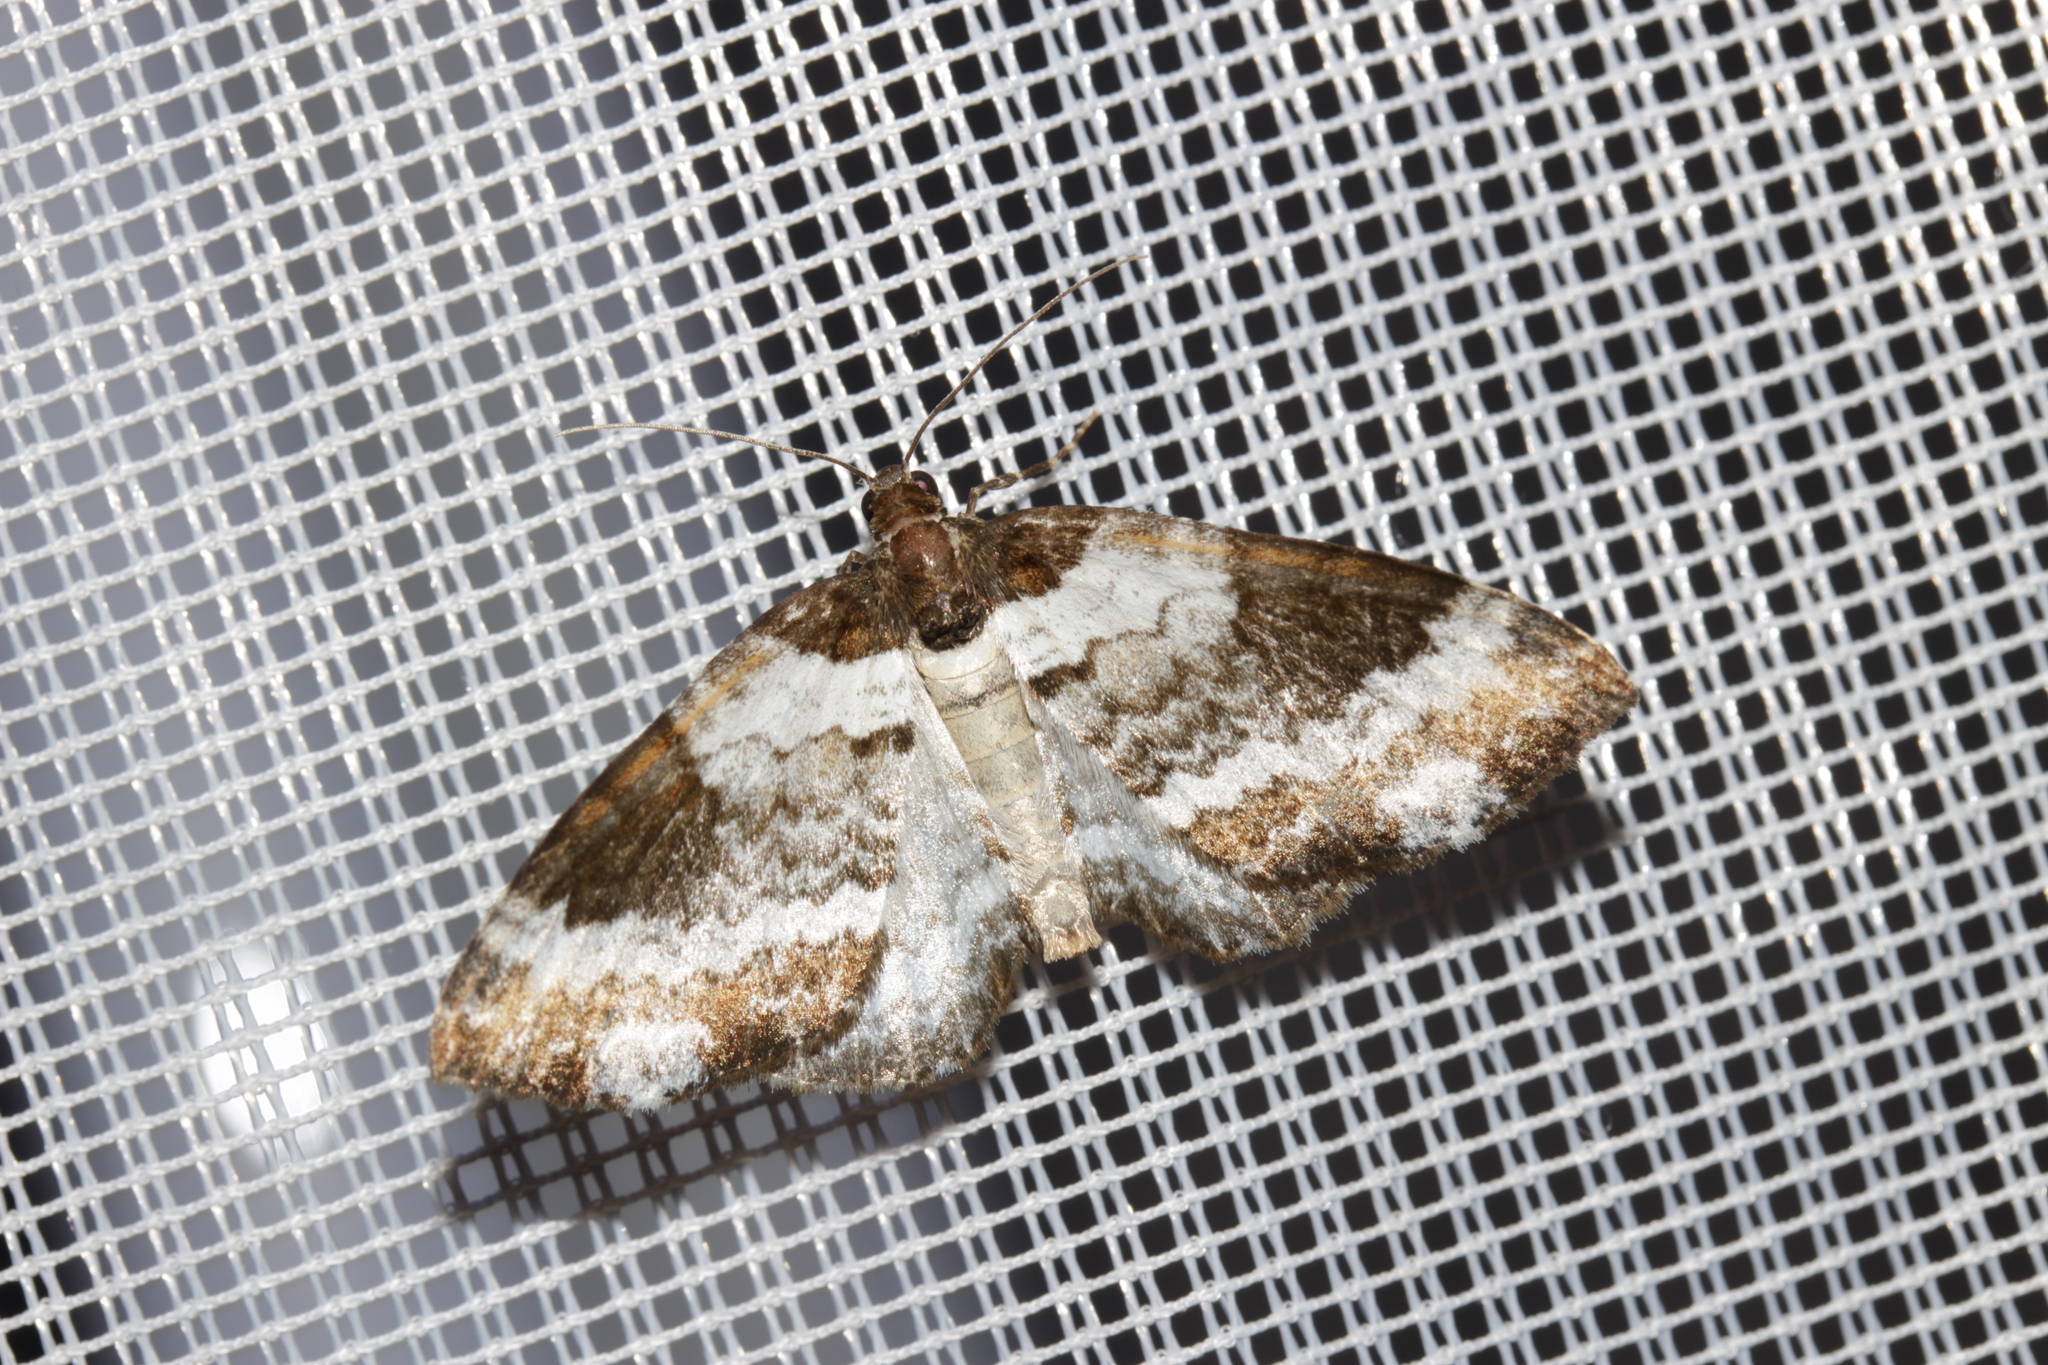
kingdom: Animalia
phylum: Arthropoda
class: Insecta
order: Lepidoptera
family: Geometridae
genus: Melanthia
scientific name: Melanthia procellata
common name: Pretty chalk carpet
